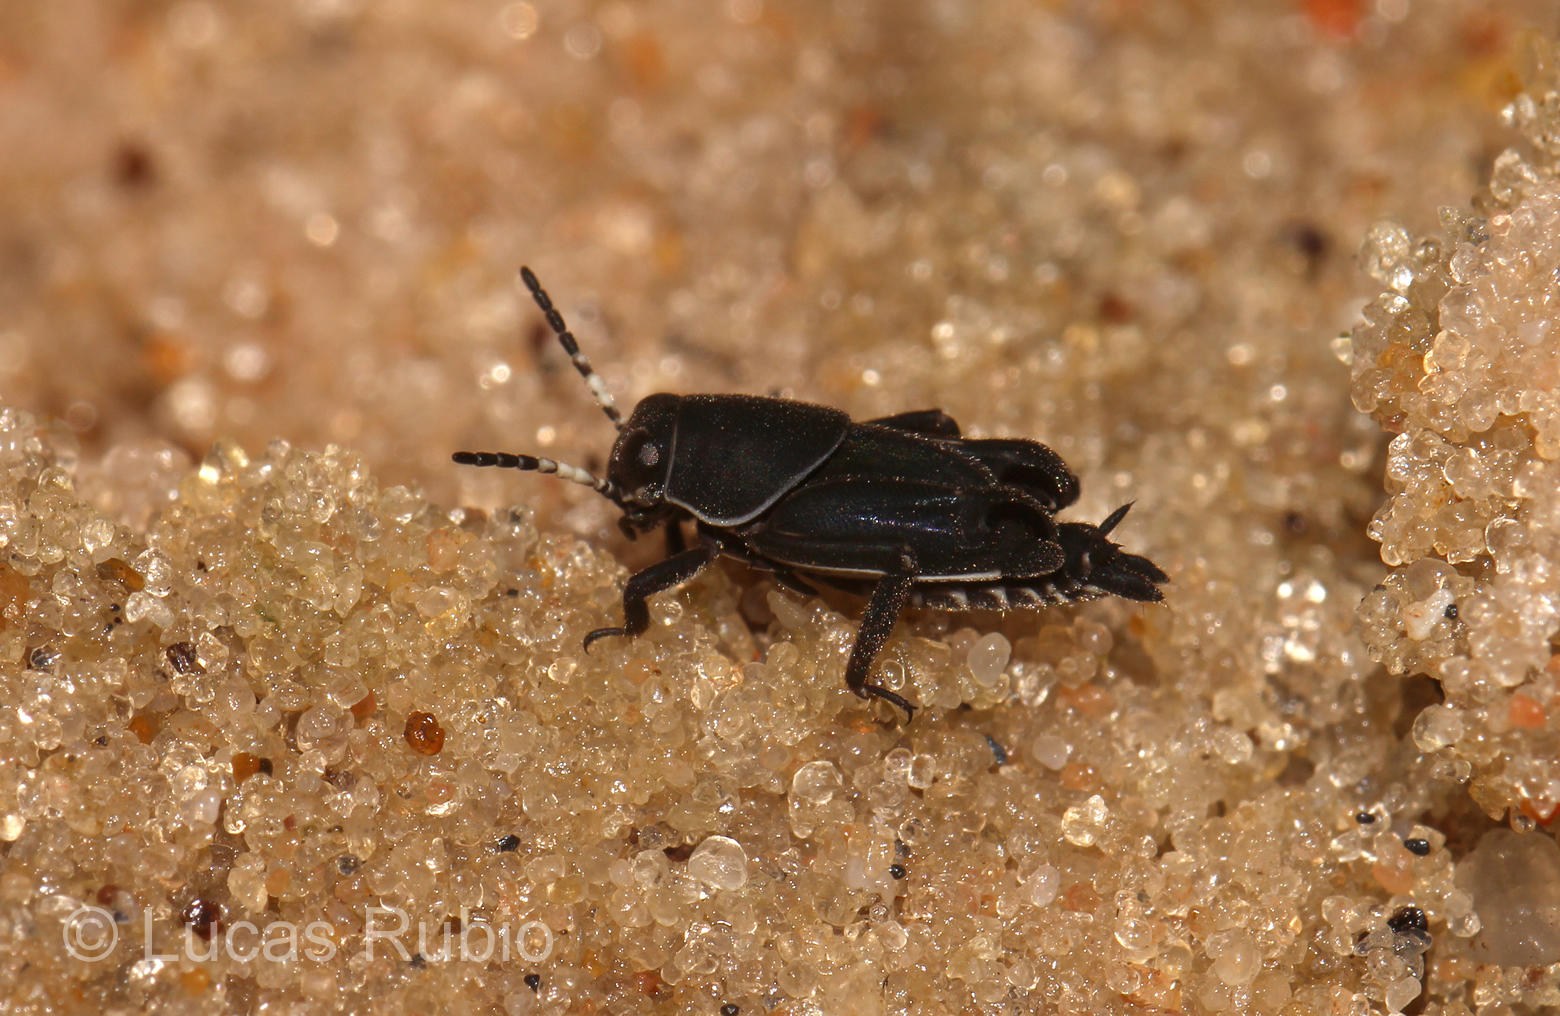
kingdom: Animalia
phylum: Arthropoda
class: Insecta
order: Orthoptera
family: Ripipterygidae
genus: Ripipteryx
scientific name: Ripipteryx notata
